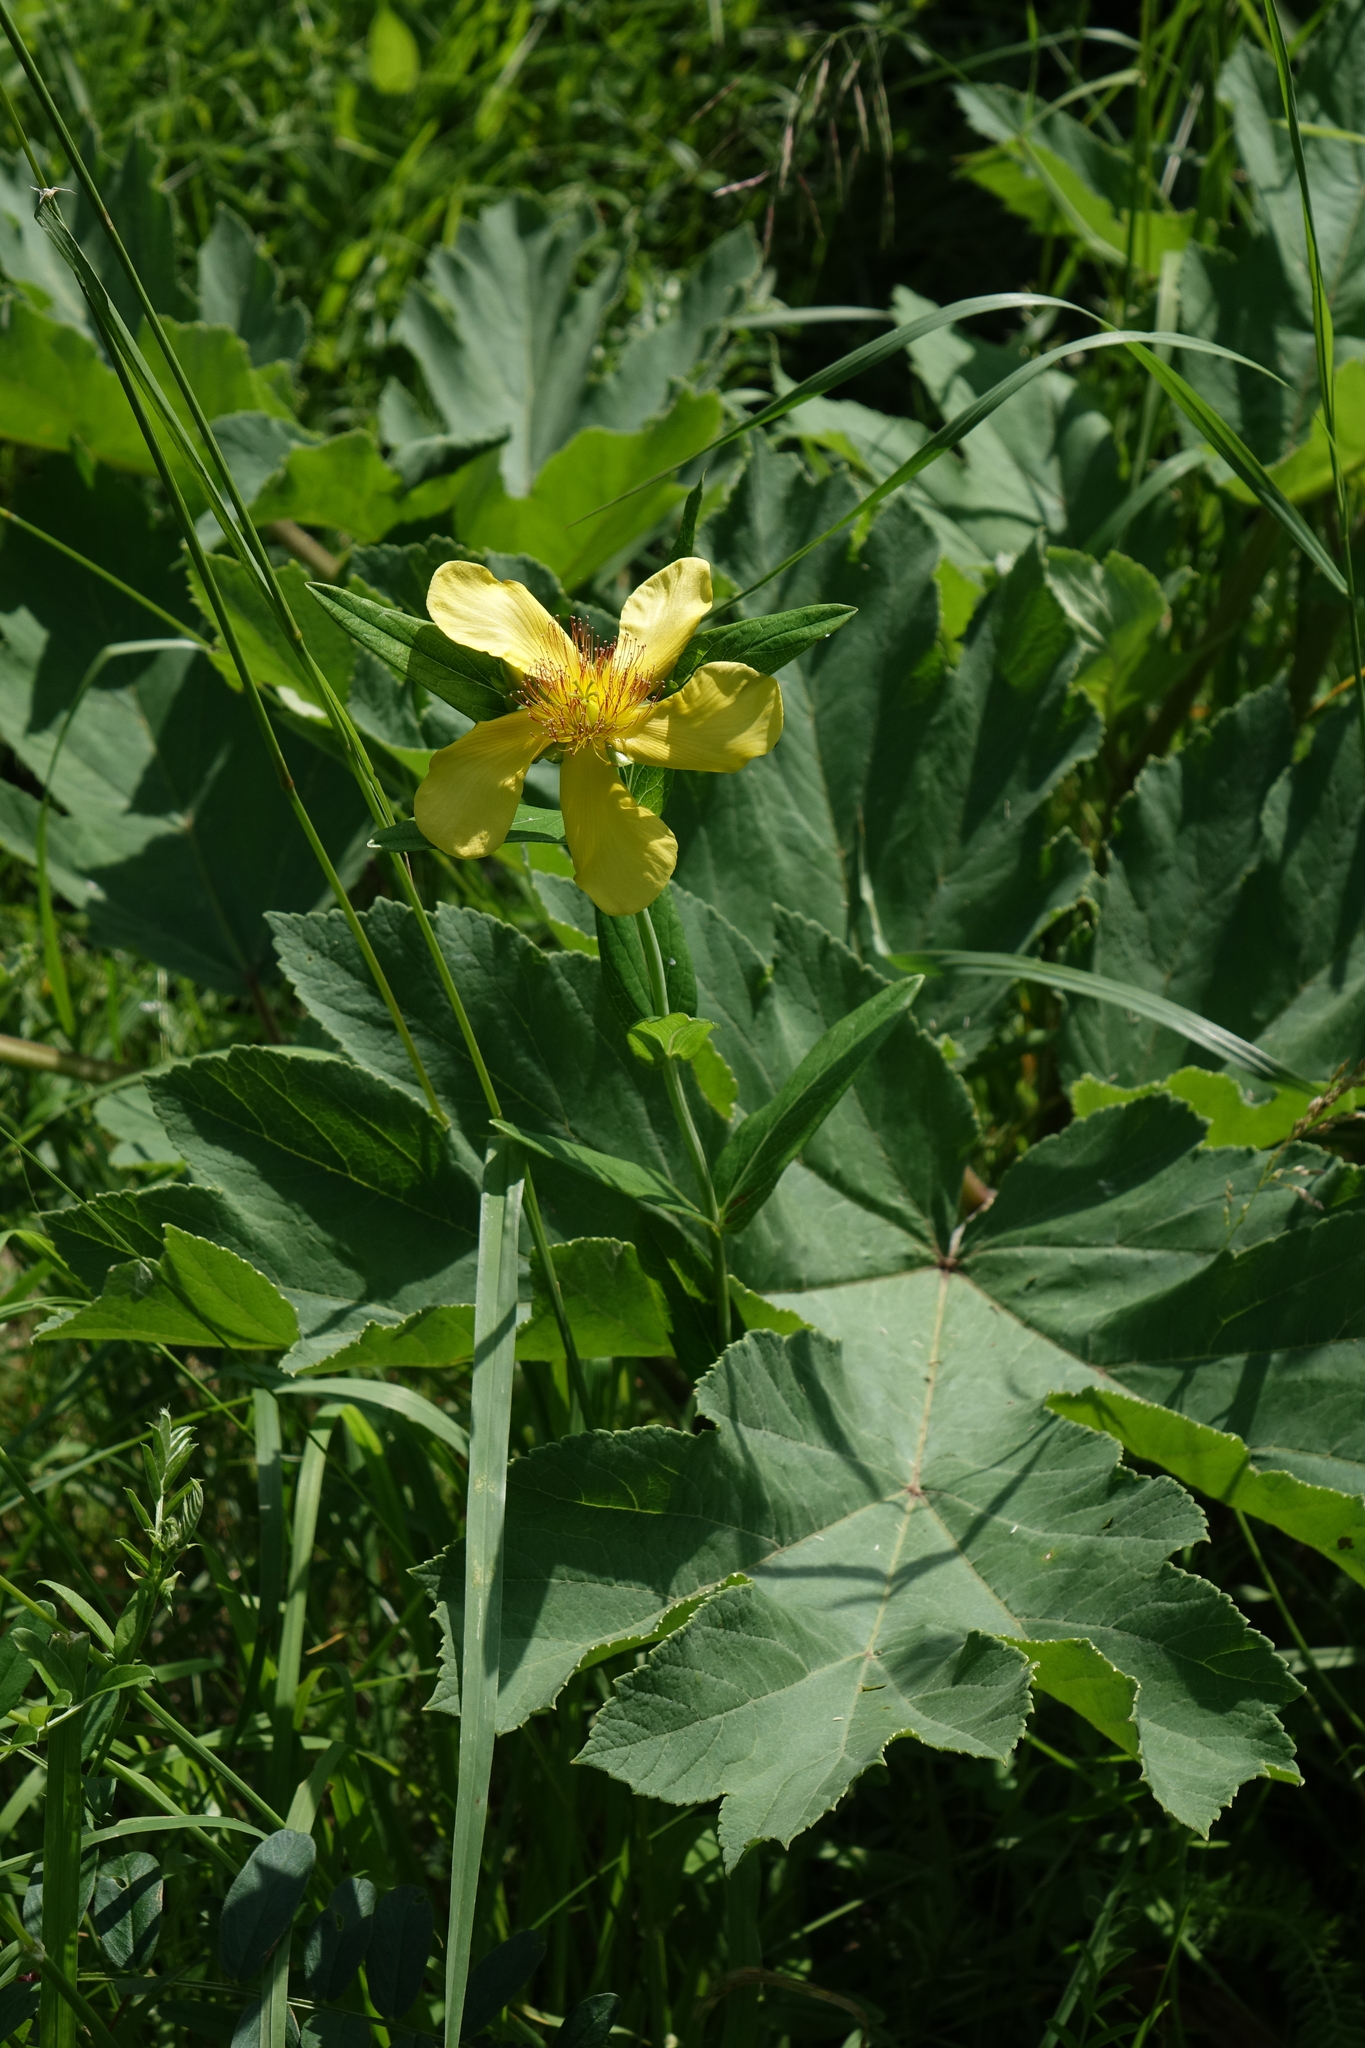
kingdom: Plantae
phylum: Tracheophyta
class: Magnoliopsida
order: Malpighiales
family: Hypericaceae
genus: Hypericum
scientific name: Hypericum ascyron
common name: Giant st. john's-wort
